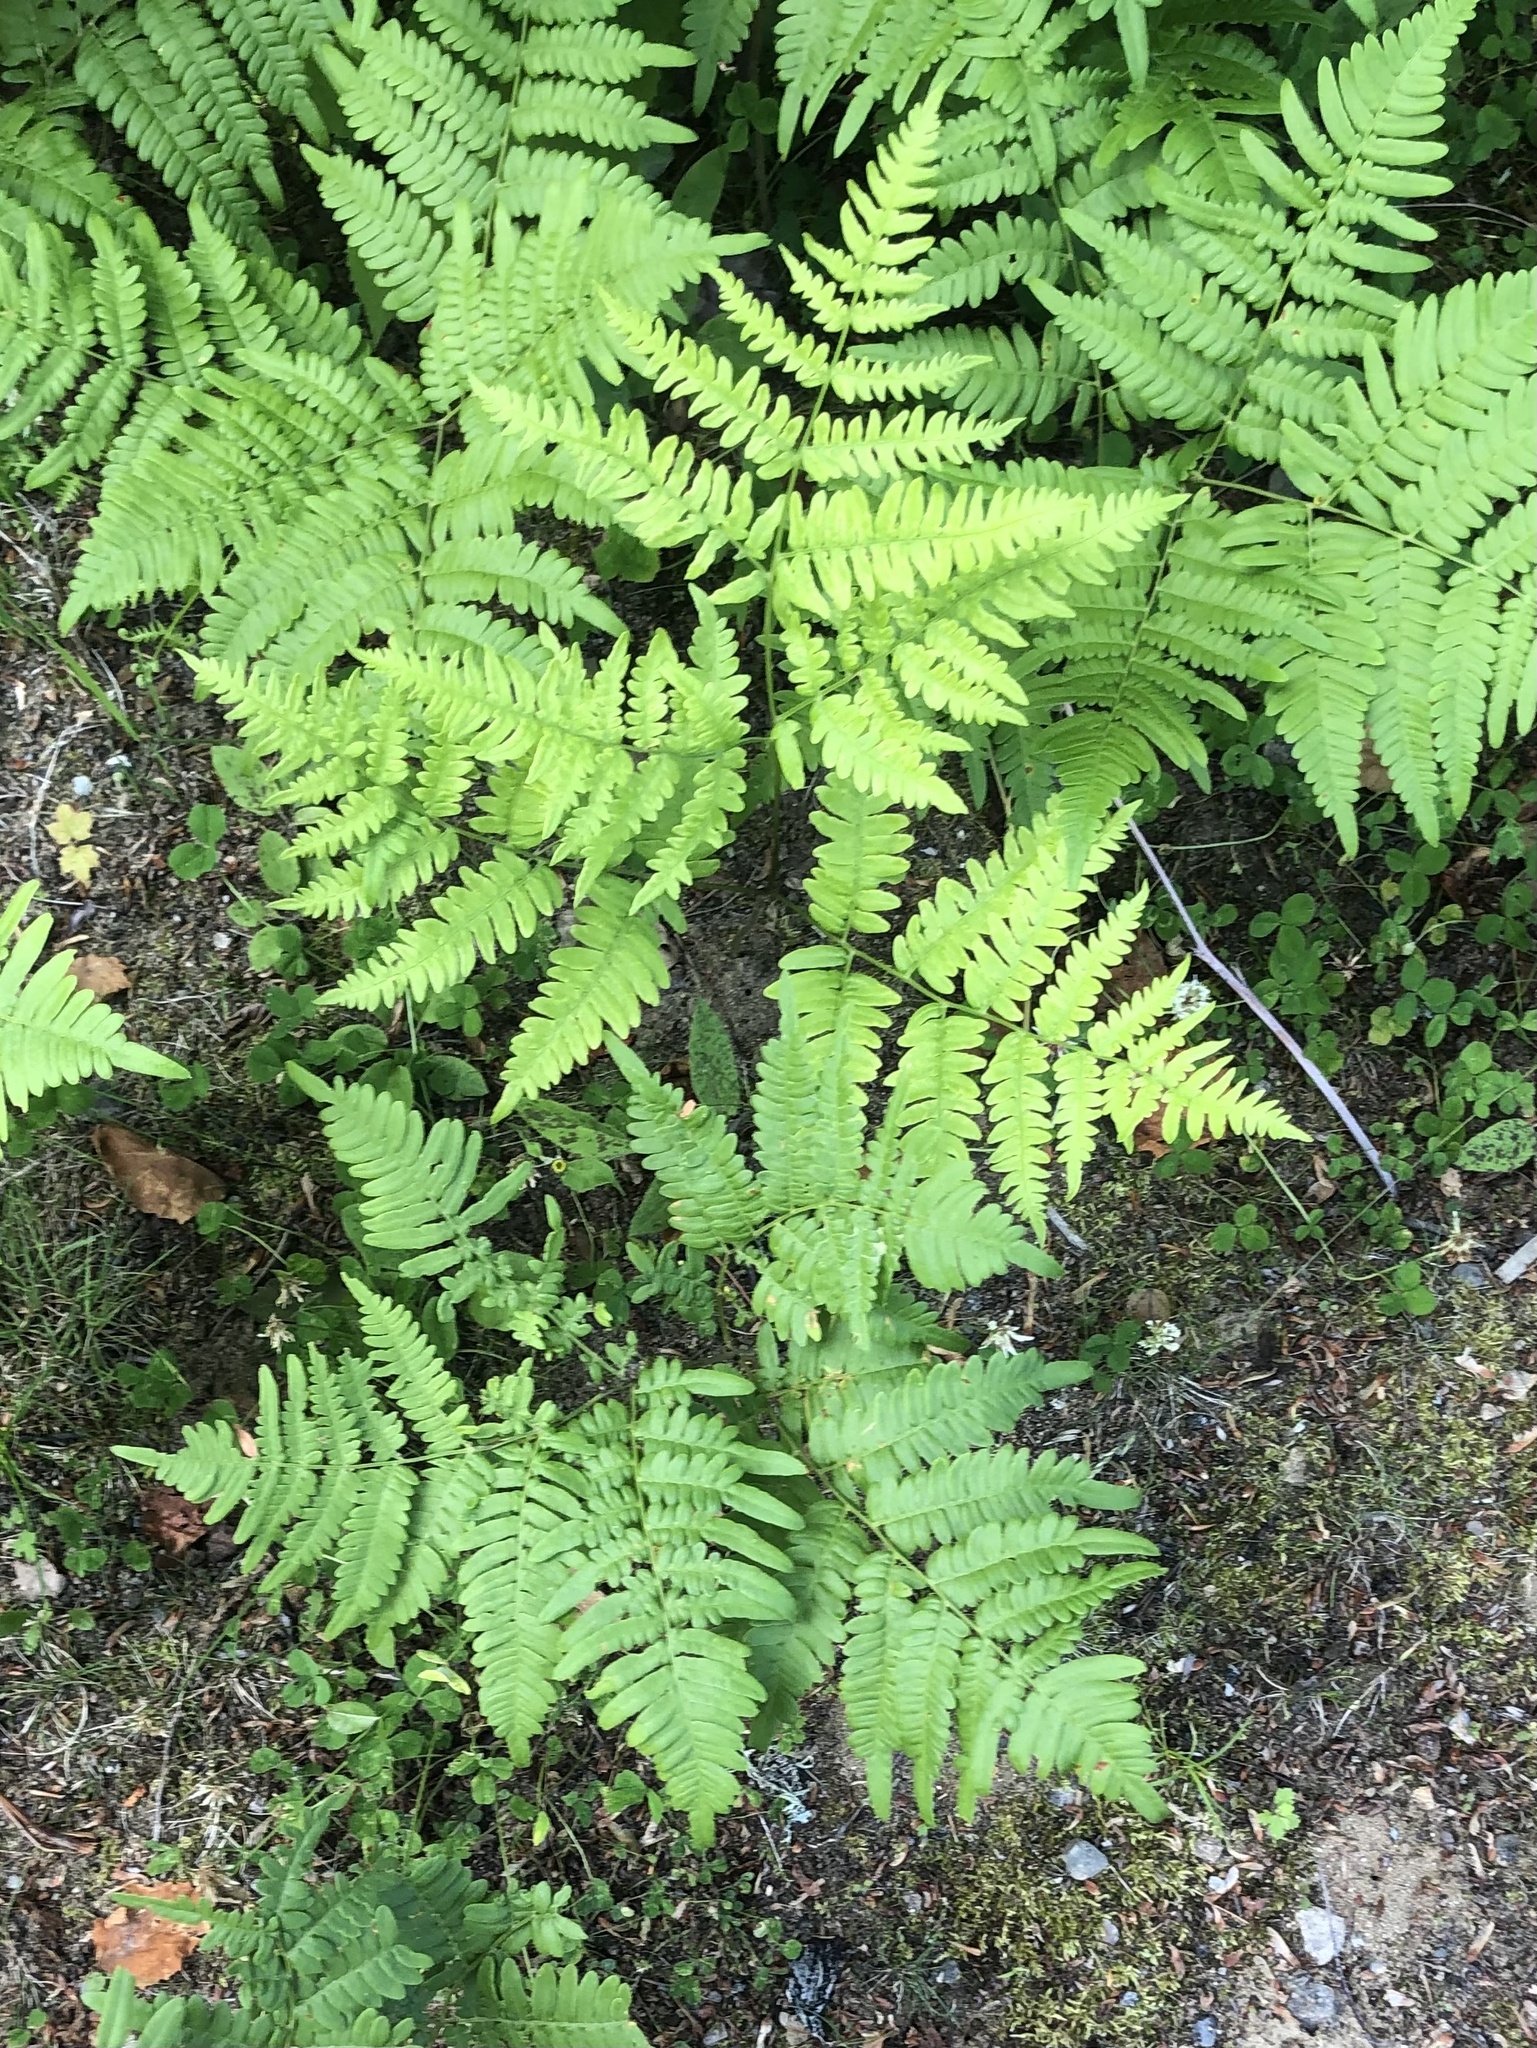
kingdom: Plantae
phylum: Tracheophyta
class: Polypodiopsida
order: Polypodiales
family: Dennstaedtiaceae
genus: Pteridium
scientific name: Pteridium aquilinum
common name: Bracken
